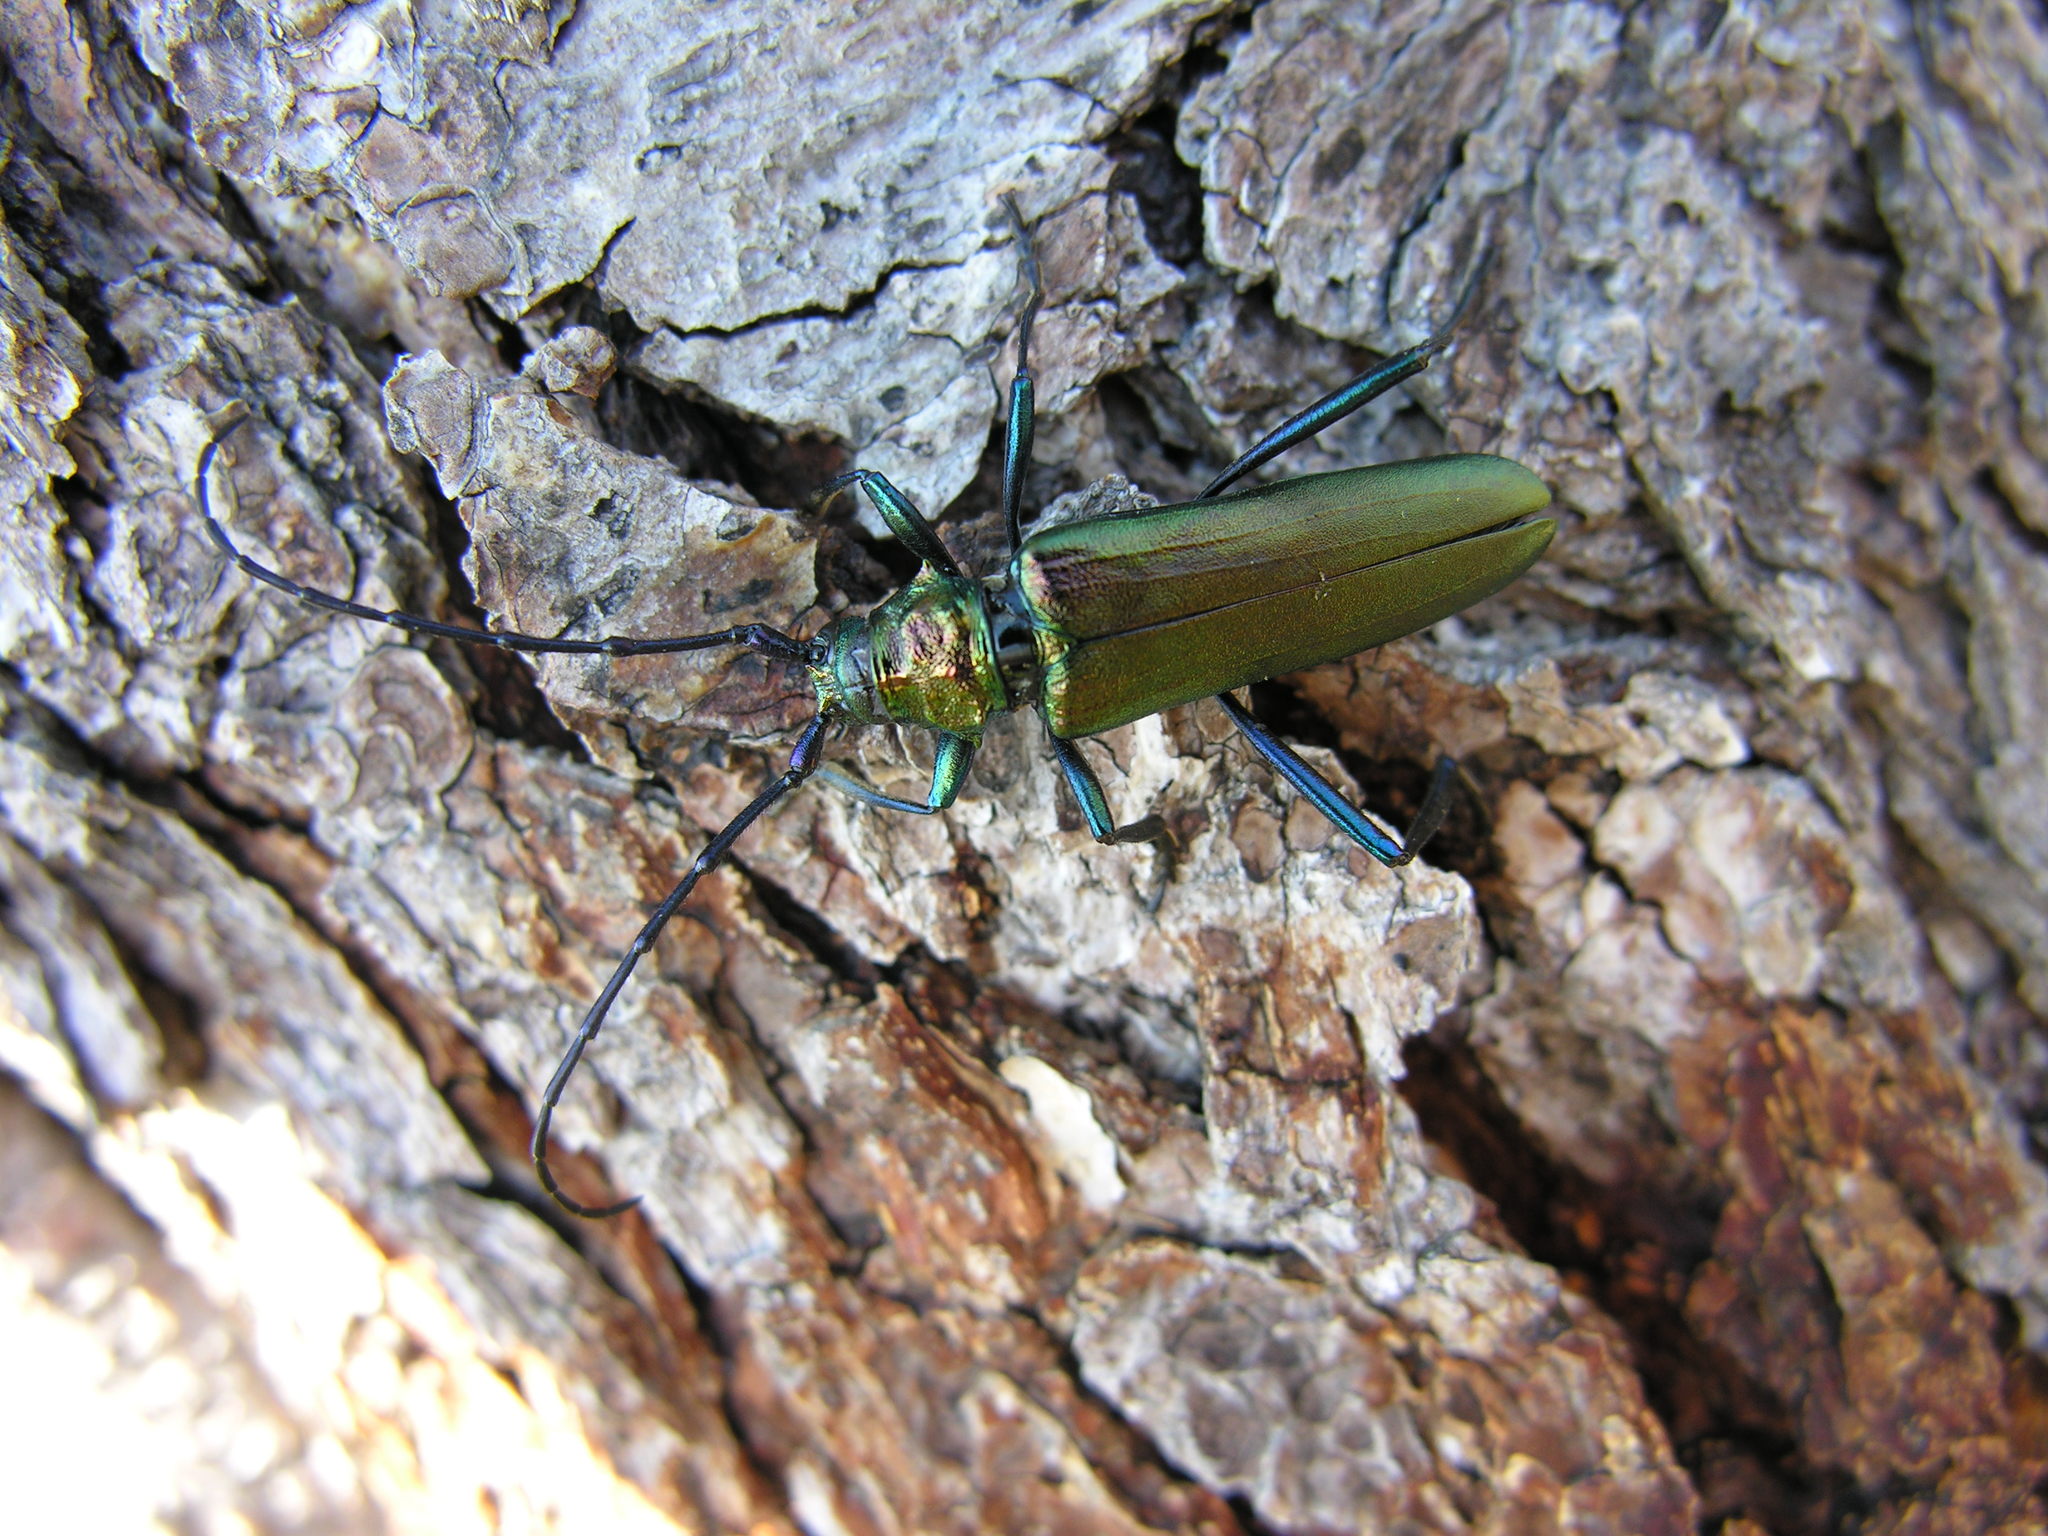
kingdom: Animalia
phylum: Arthropoda
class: Insecta
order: Coleoptera
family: Cerambycidae
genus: Aromia
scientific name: Aromia moschata
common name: Musk beetle
